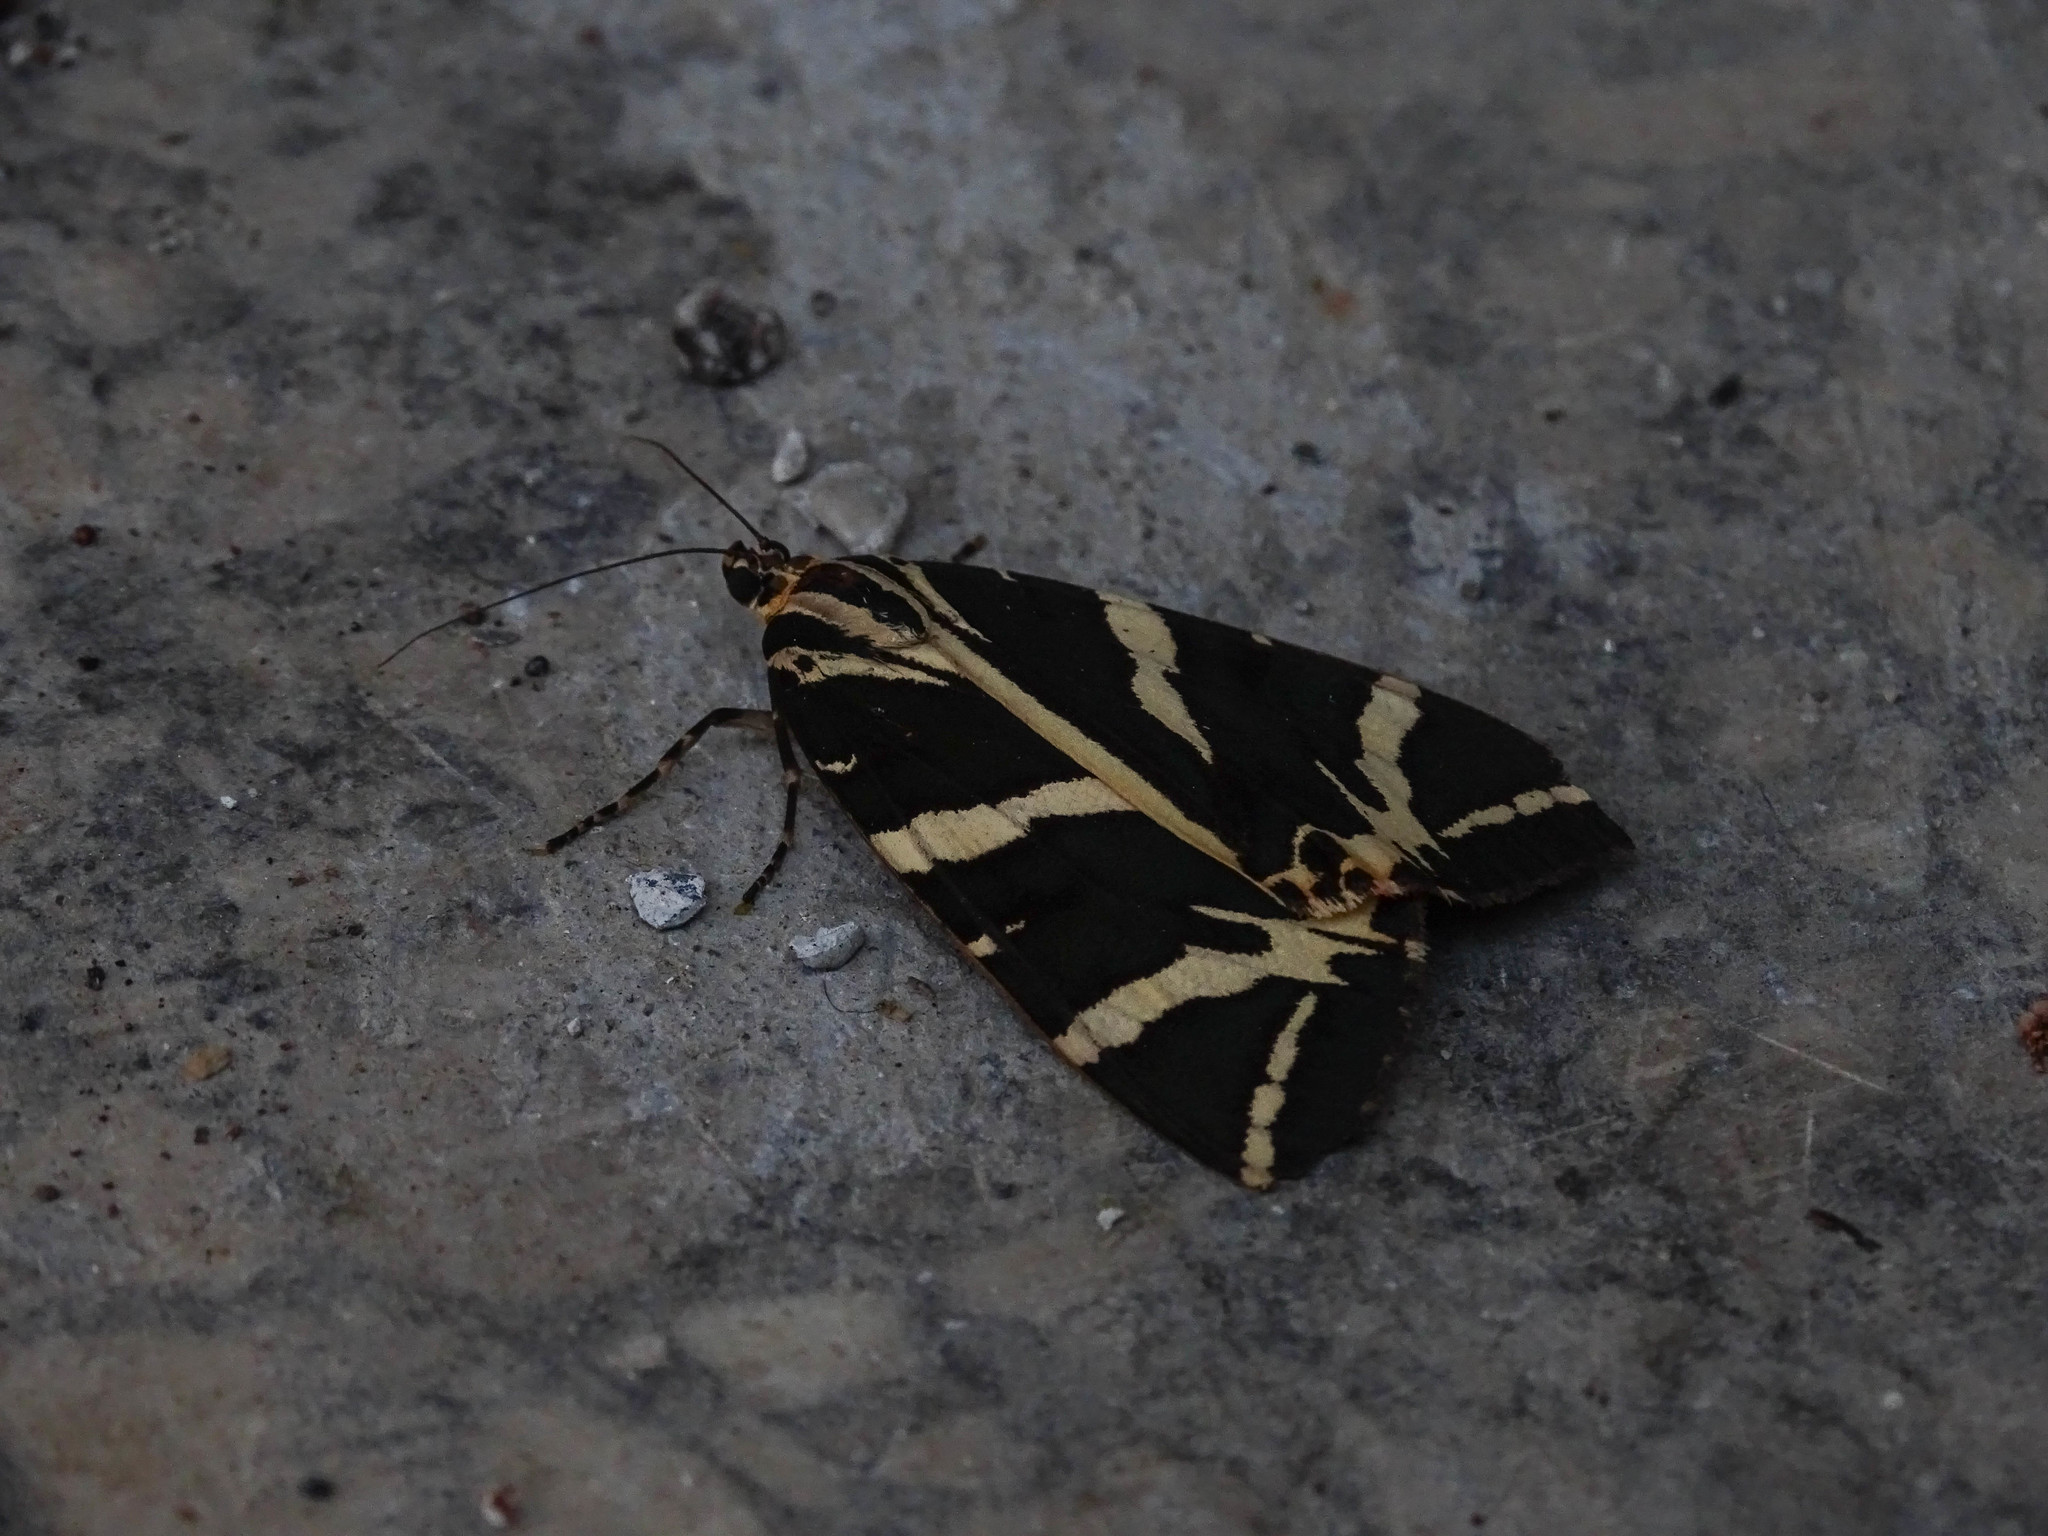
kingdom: Animalia
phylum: Arthropoda
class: Insecta
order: Lepidoptera
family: Erebidae
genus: Euplagia
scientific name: Euplagia quadripunctaria
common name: Jersey tiger
